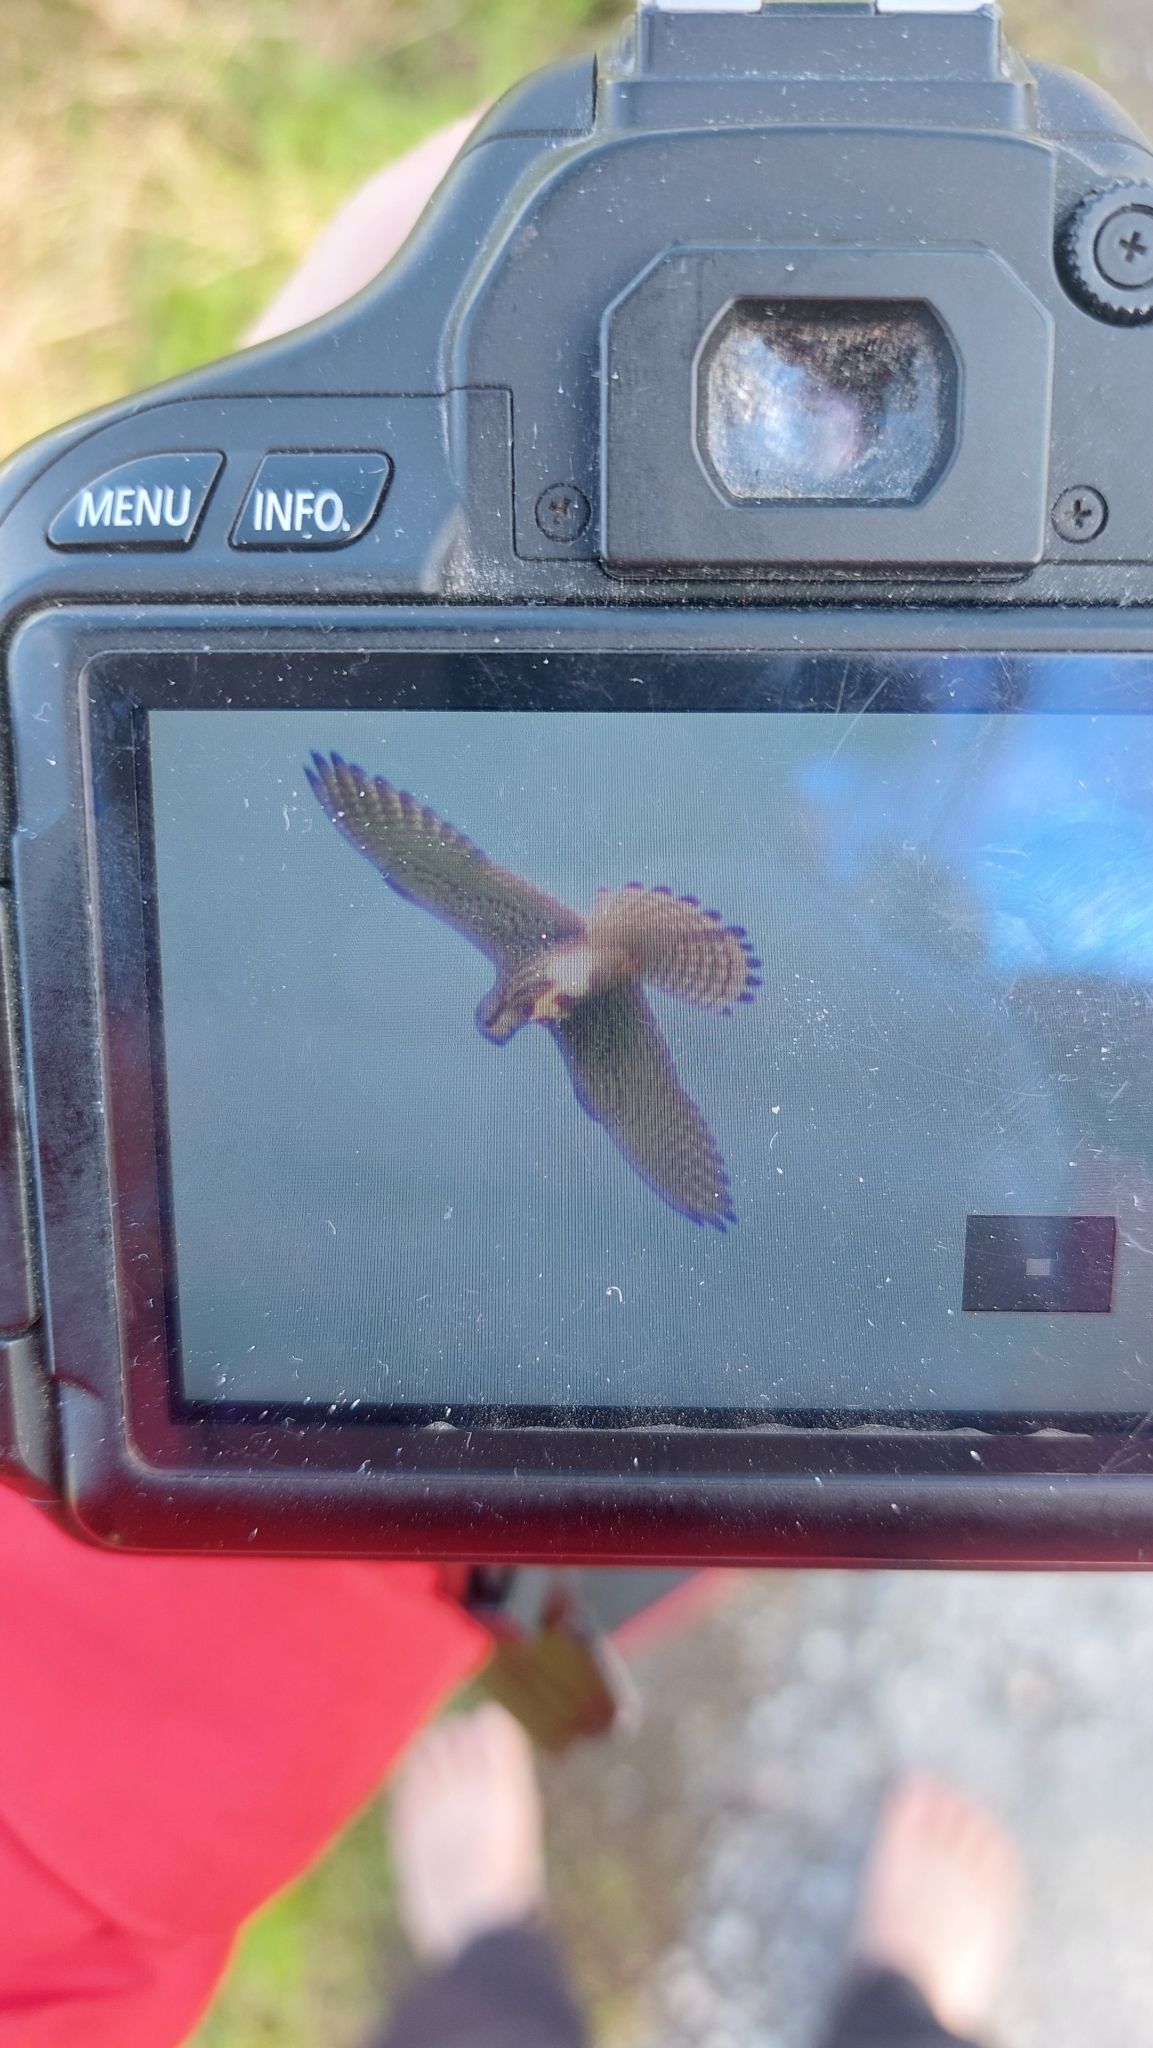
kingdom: Animalia
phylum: Chordata
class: Aves
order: Falconiformes
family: Falconidae
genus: Falco
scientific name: Falco tinnunculus
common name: Common kestrel
